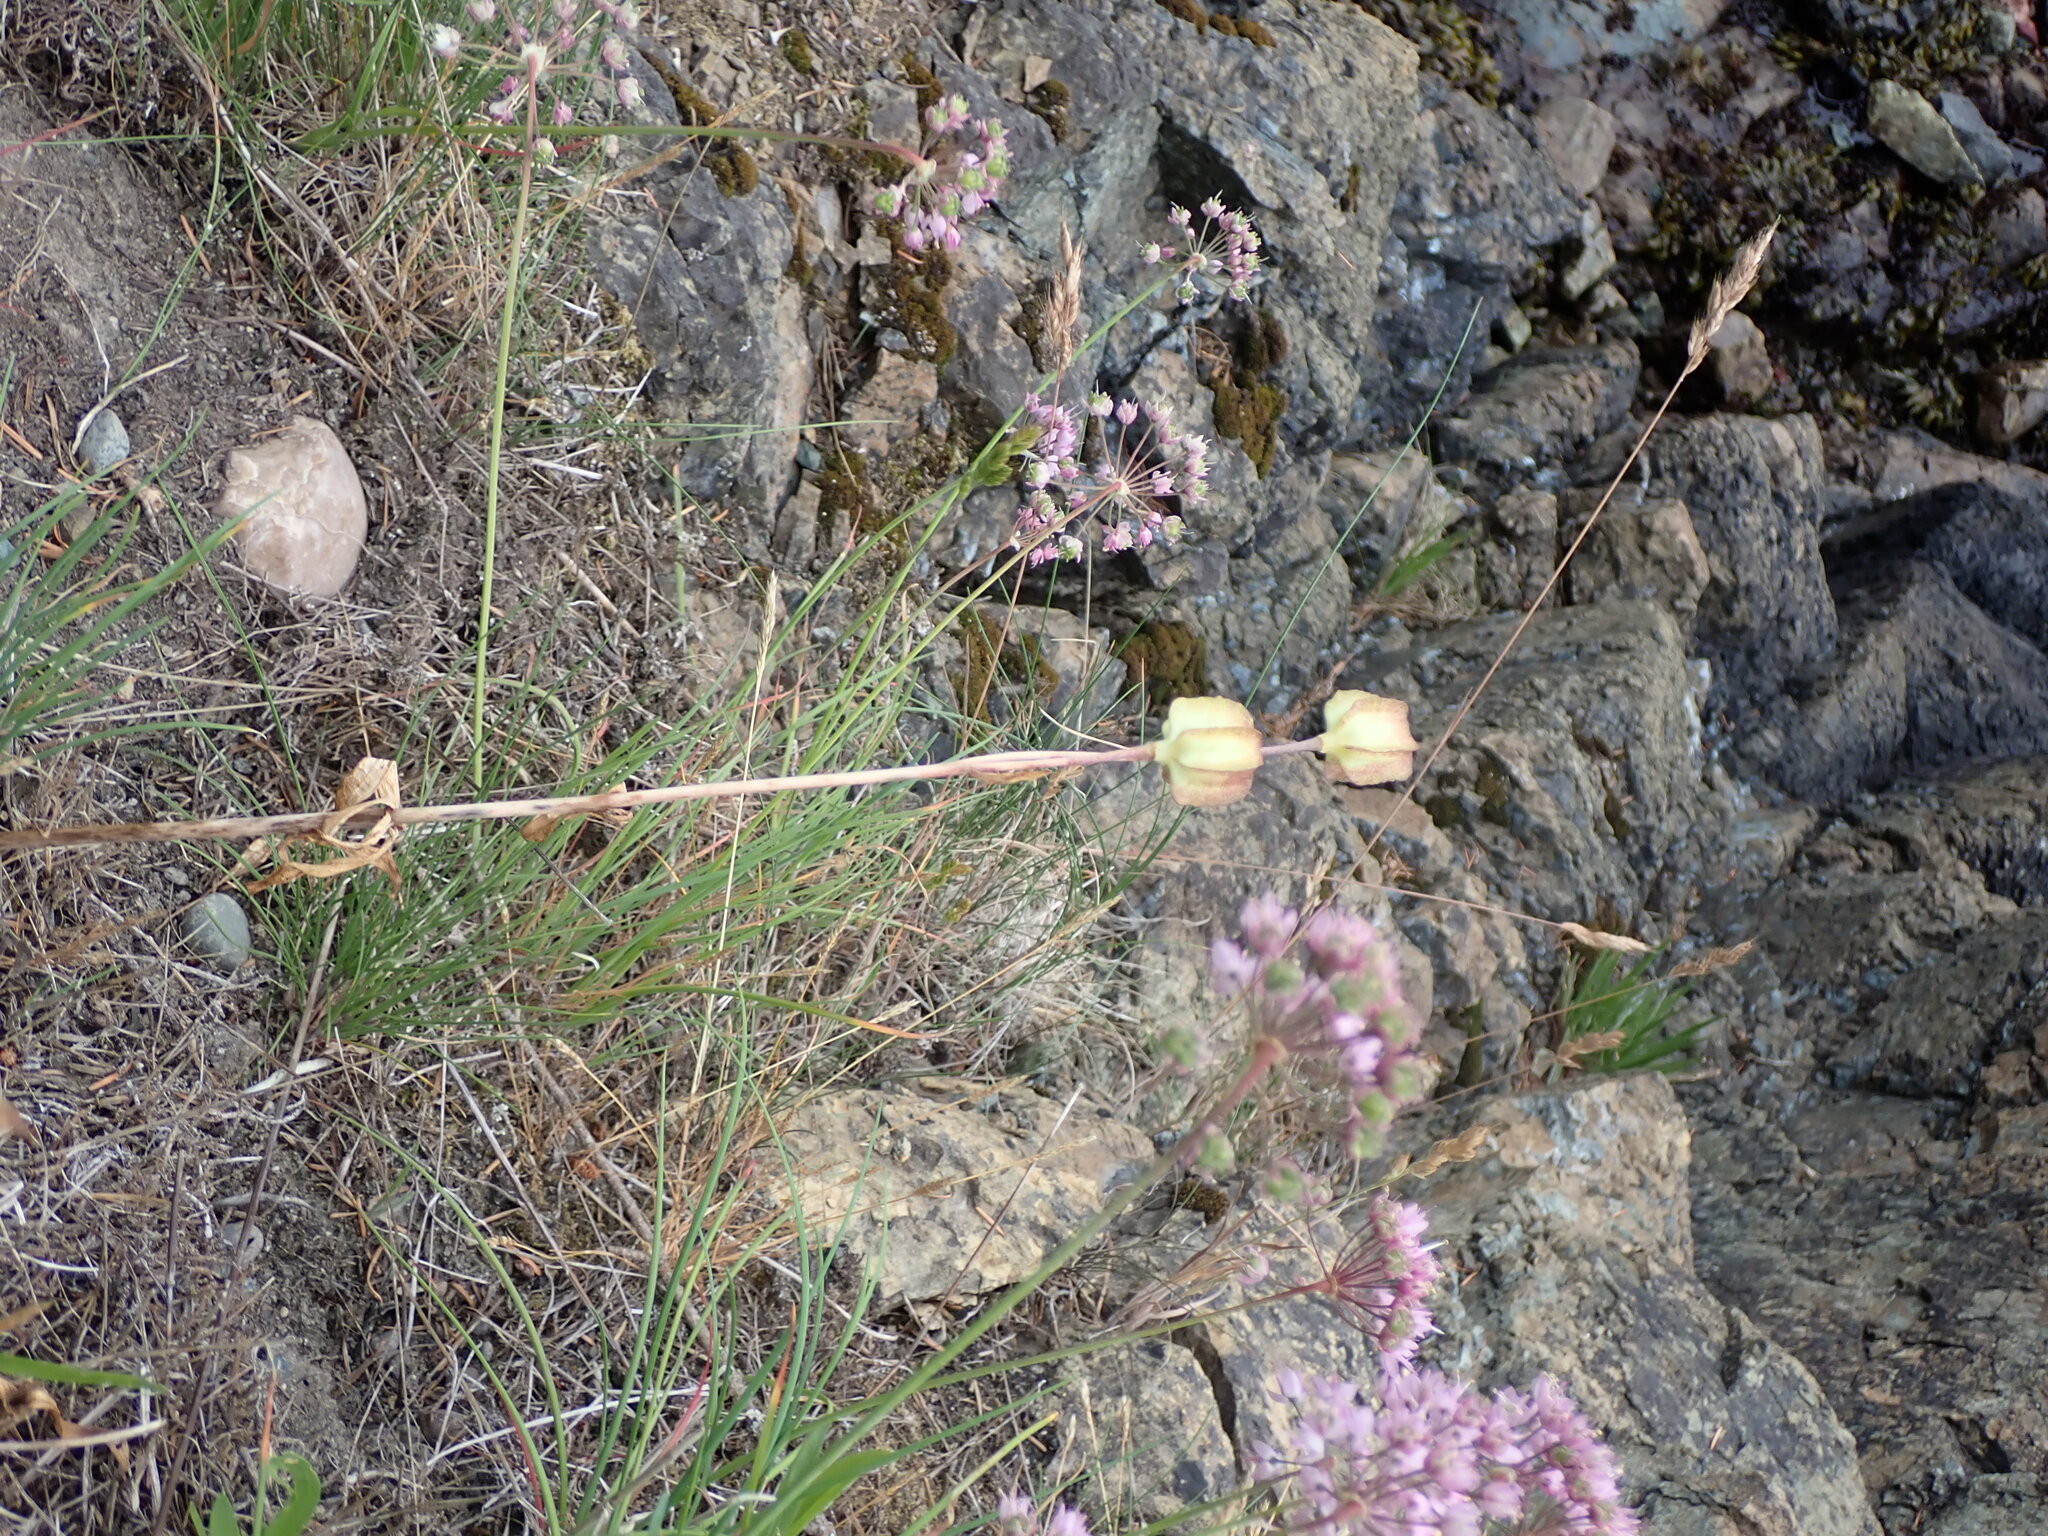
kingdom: Plantae
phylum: Tracheophyta
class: Liliopsida
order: Liliales
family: Liliaceae
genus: Fritillaria
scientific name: Fritillaria affinis
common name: Ojai fritillary
